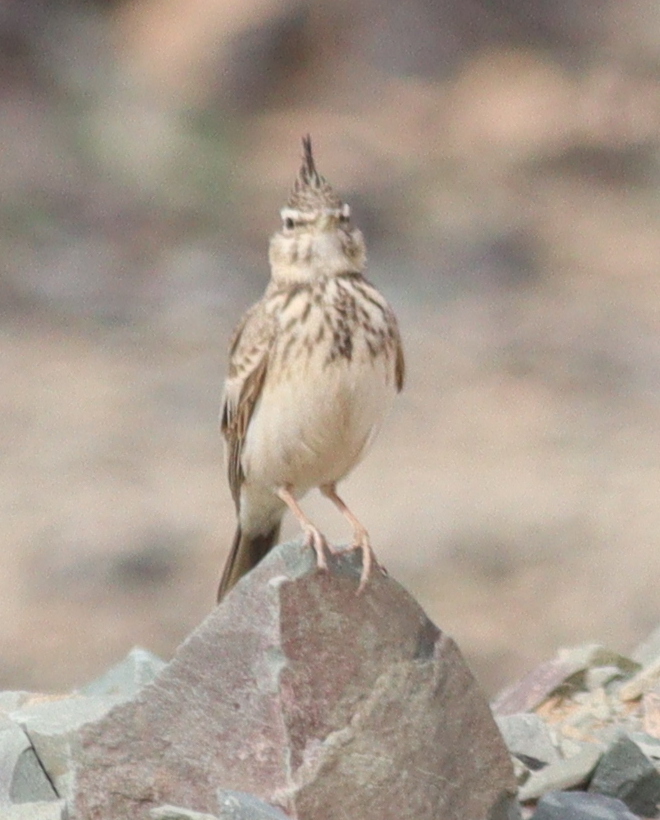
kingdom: Animalia
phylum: Chordata
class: Aves
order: Passeriformes
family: Alaudidae
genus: Galerida
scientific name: Galerida cristata
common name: Crested lark
